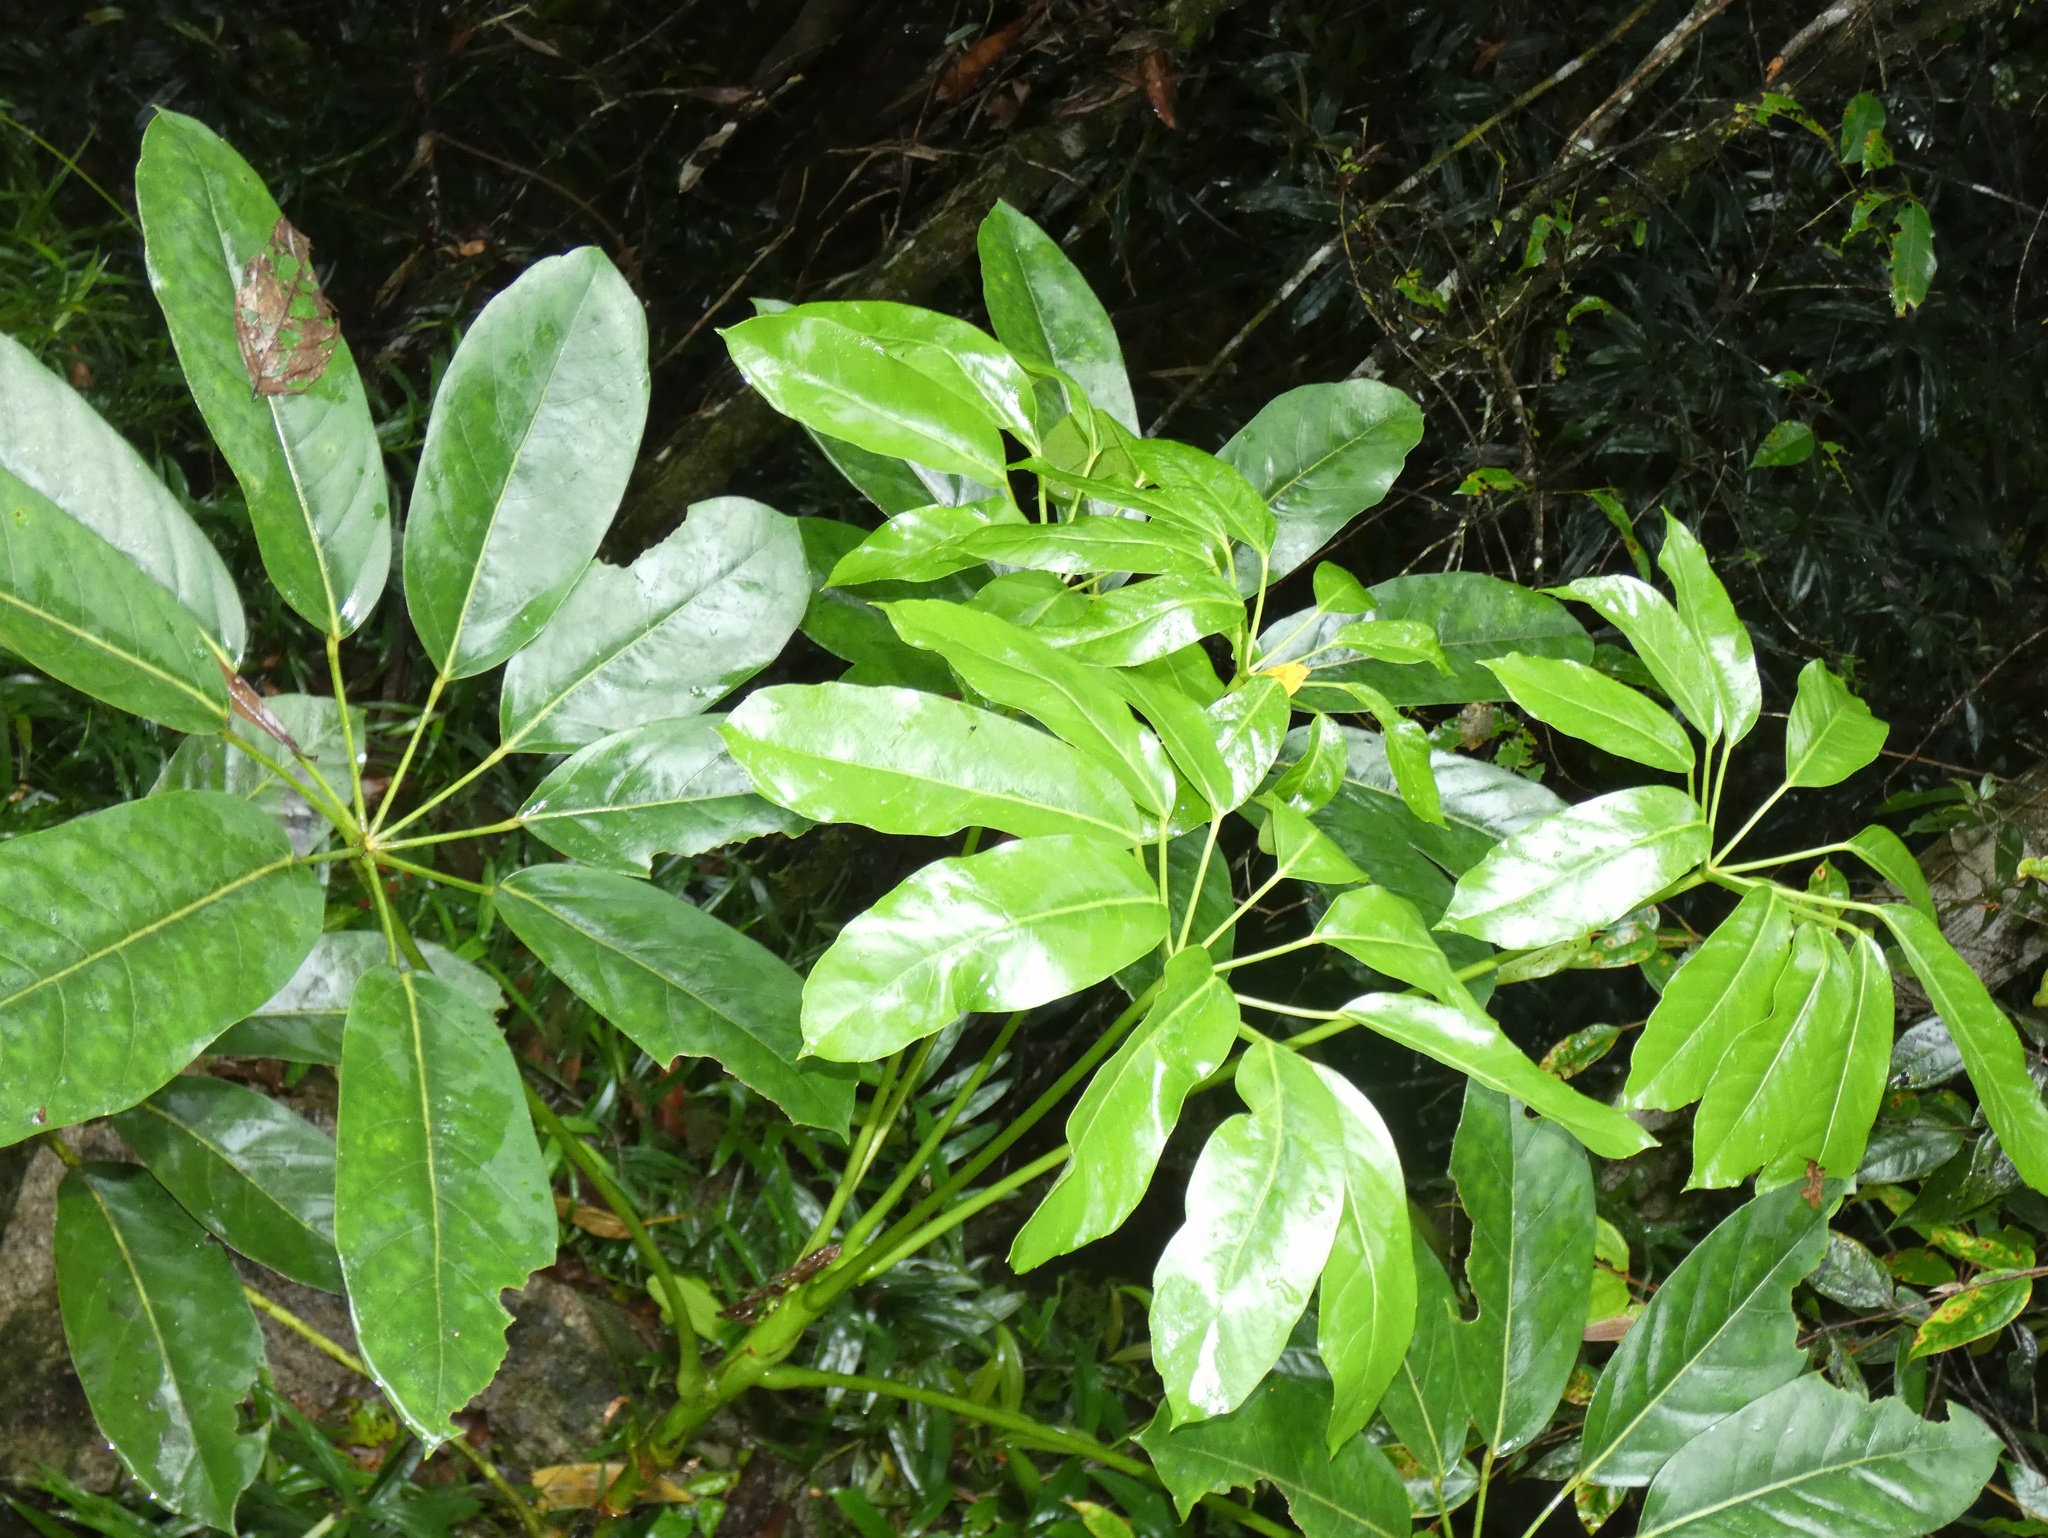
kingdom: Plantae
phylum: Tracheophyta
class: Magnoliopsida
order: Apiales
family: Araliaceae
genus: Heptapleurum
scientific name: Heptapleurum actinophyllum
